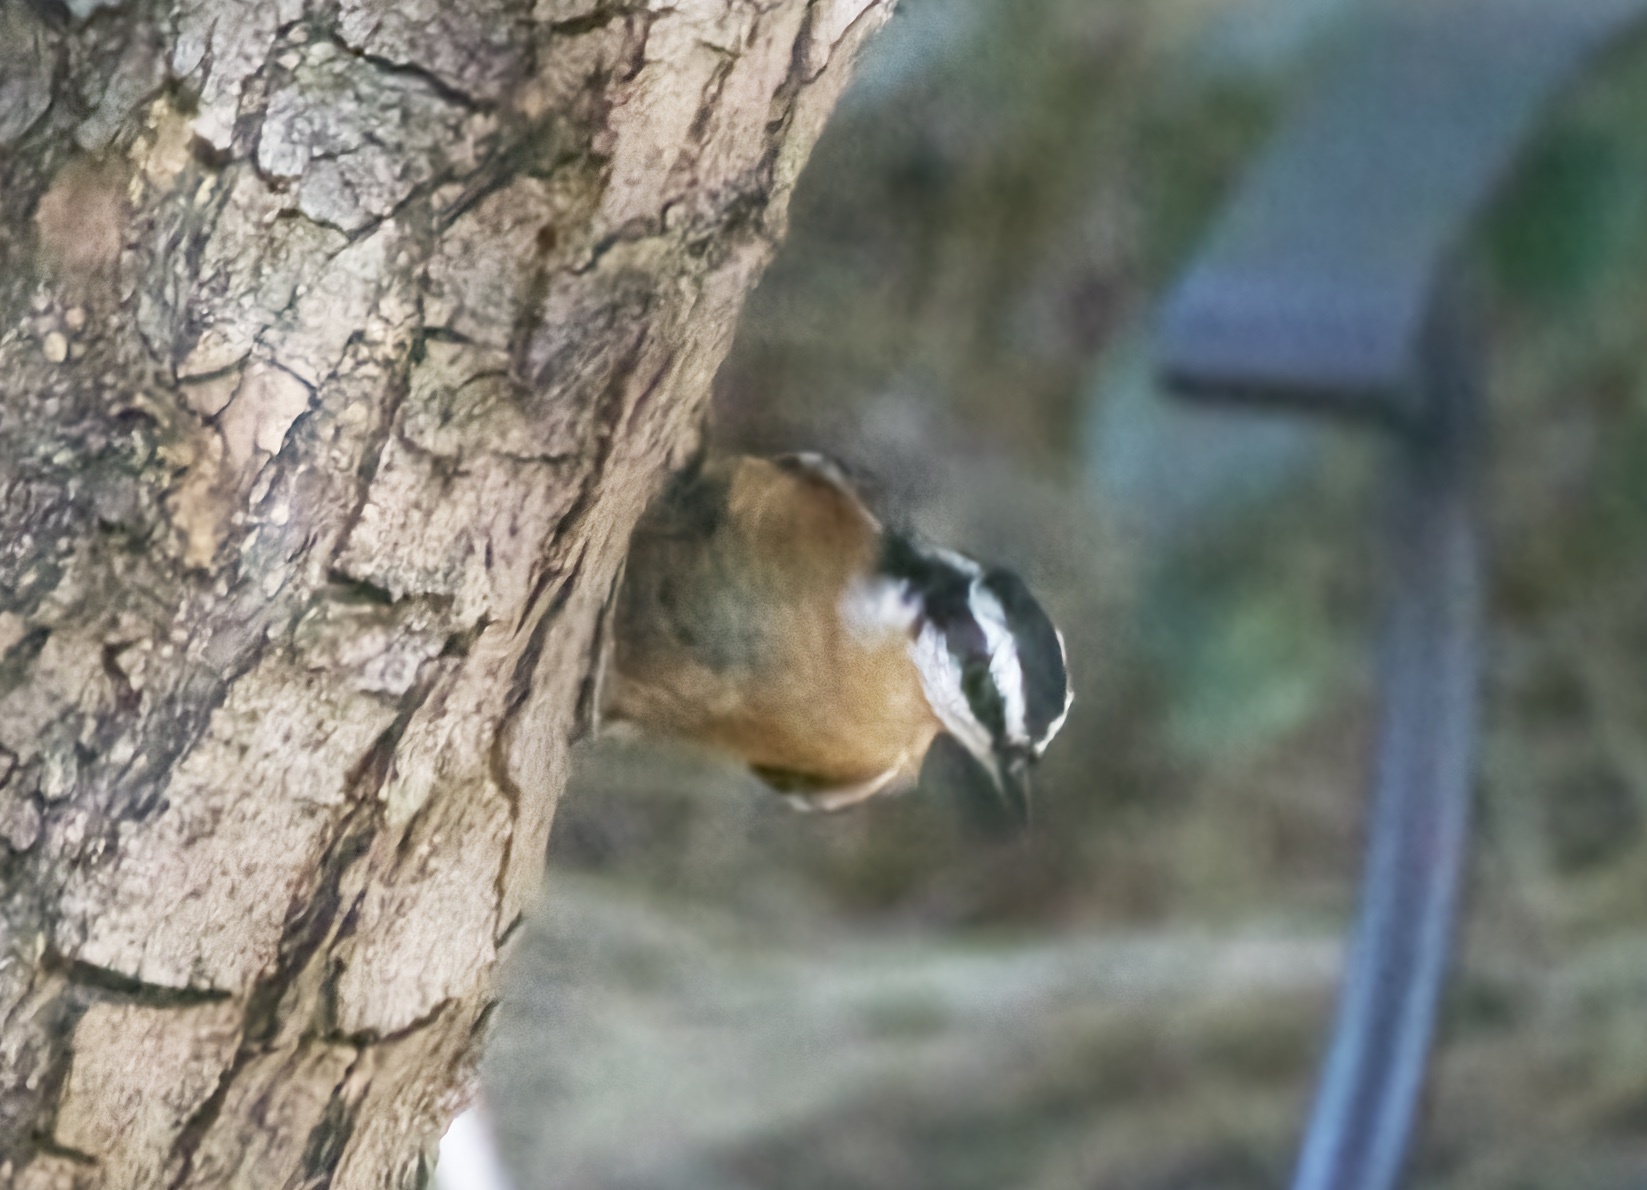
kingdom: Animalia
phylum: Chordata
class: Aves
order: Passeriformes
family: Sittidae
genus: Sitta
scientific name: Sitta canadensis
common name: Red-breasted nuthatch
